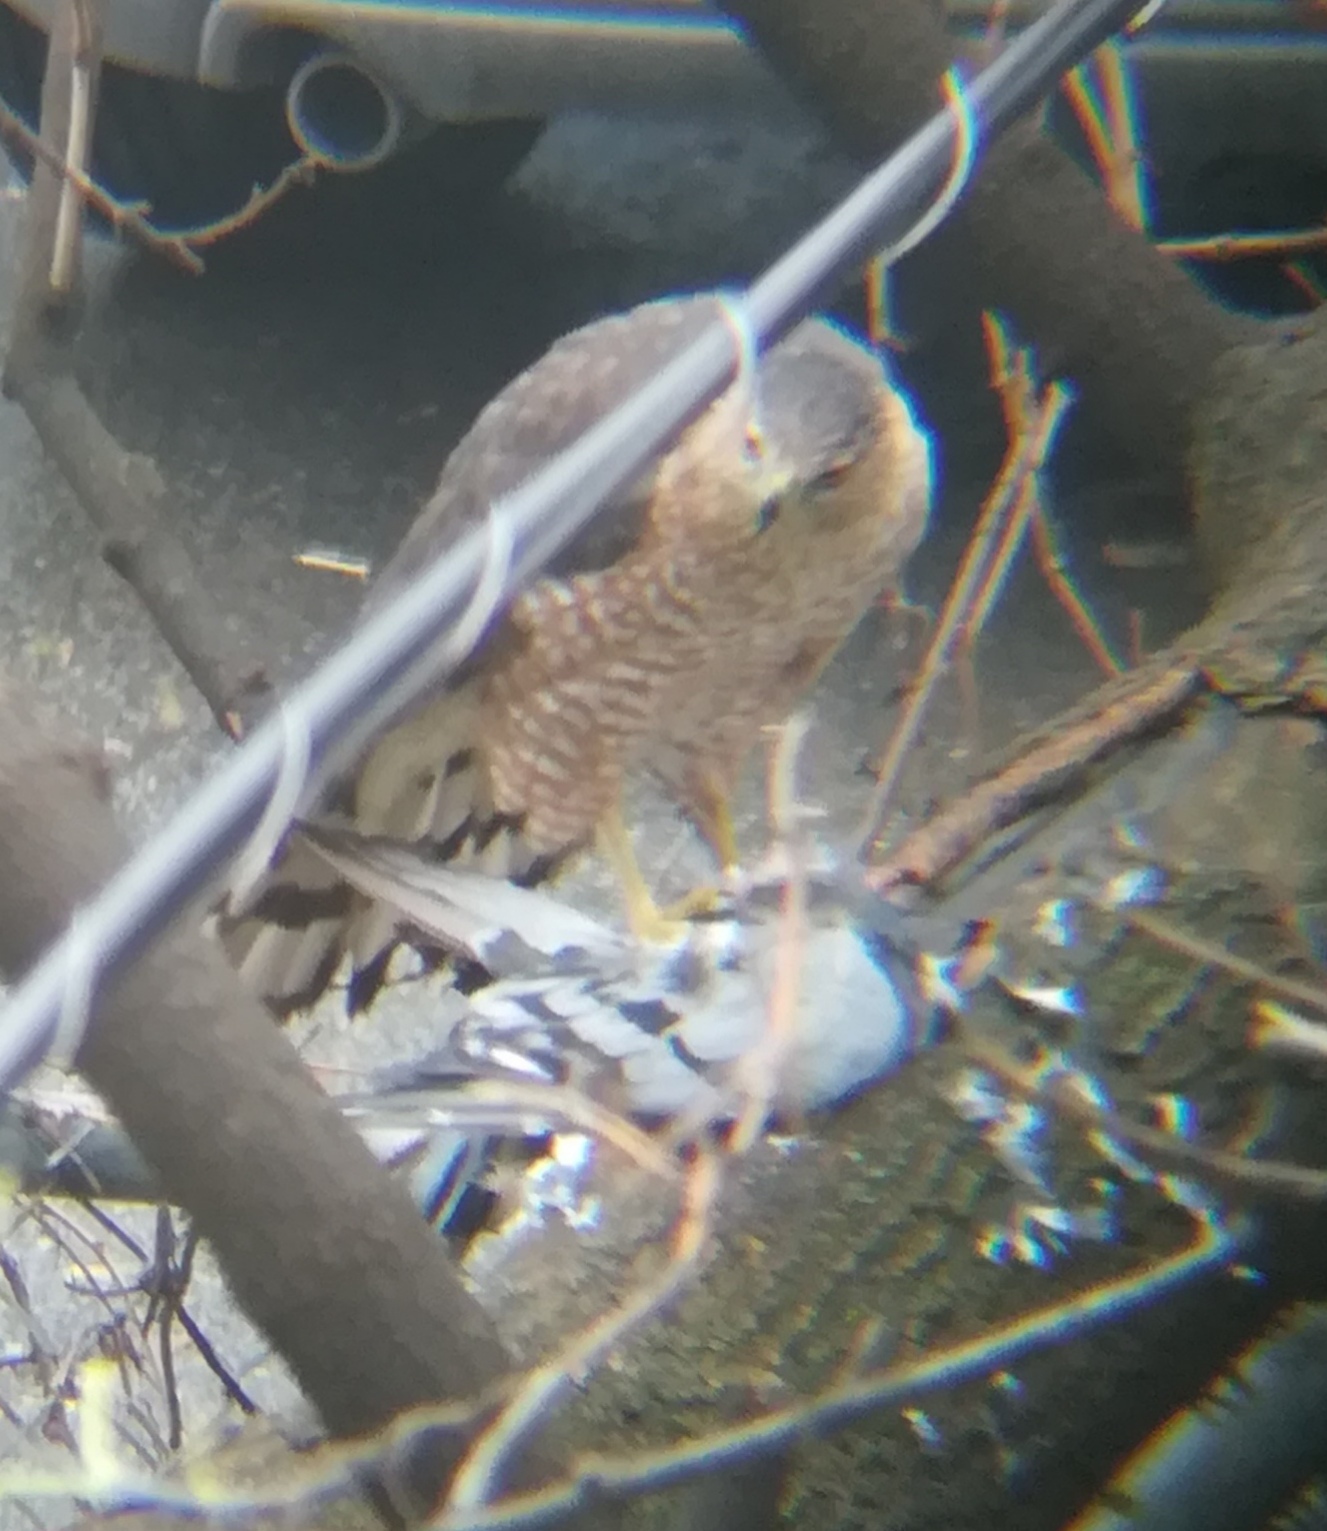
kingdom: Animalia
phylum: Chordata
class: Aves
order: Accipitriformes
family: Accipitridae
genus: Accipiter
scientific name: Accipiter cooperii
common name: Cooper's hawk
